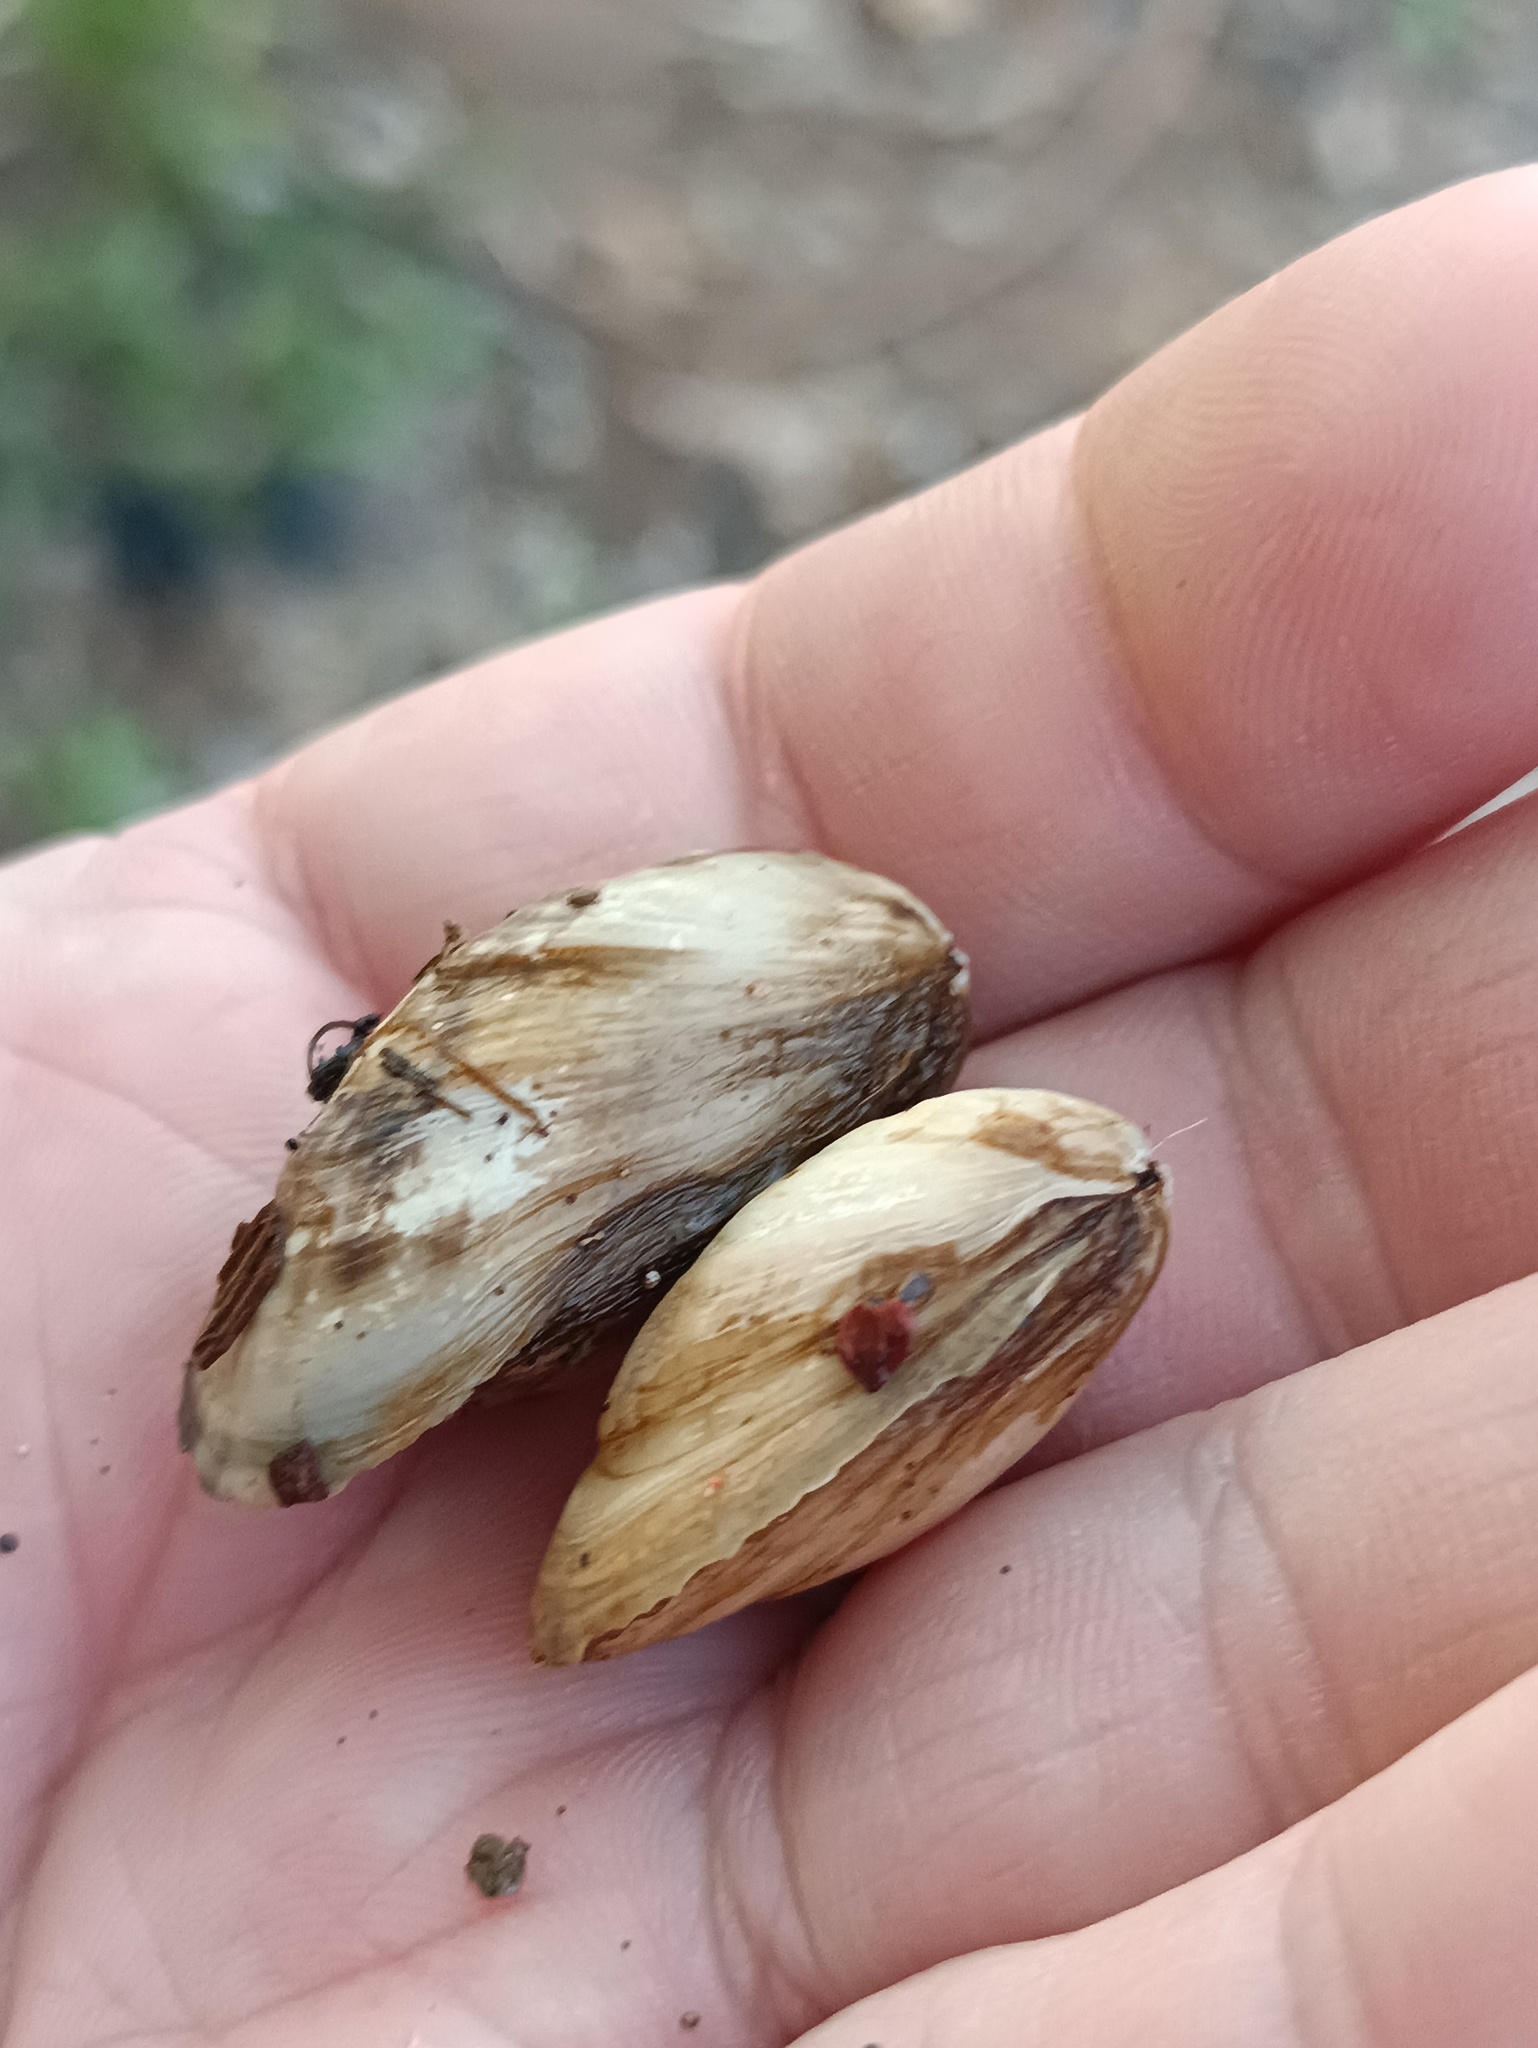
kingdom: Animalia
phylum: Mollusca
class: Bivalvia
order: Myida
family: Dreissenidae
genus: Dreissena
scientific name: Dreissena bugensis
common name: Quagga mussel
